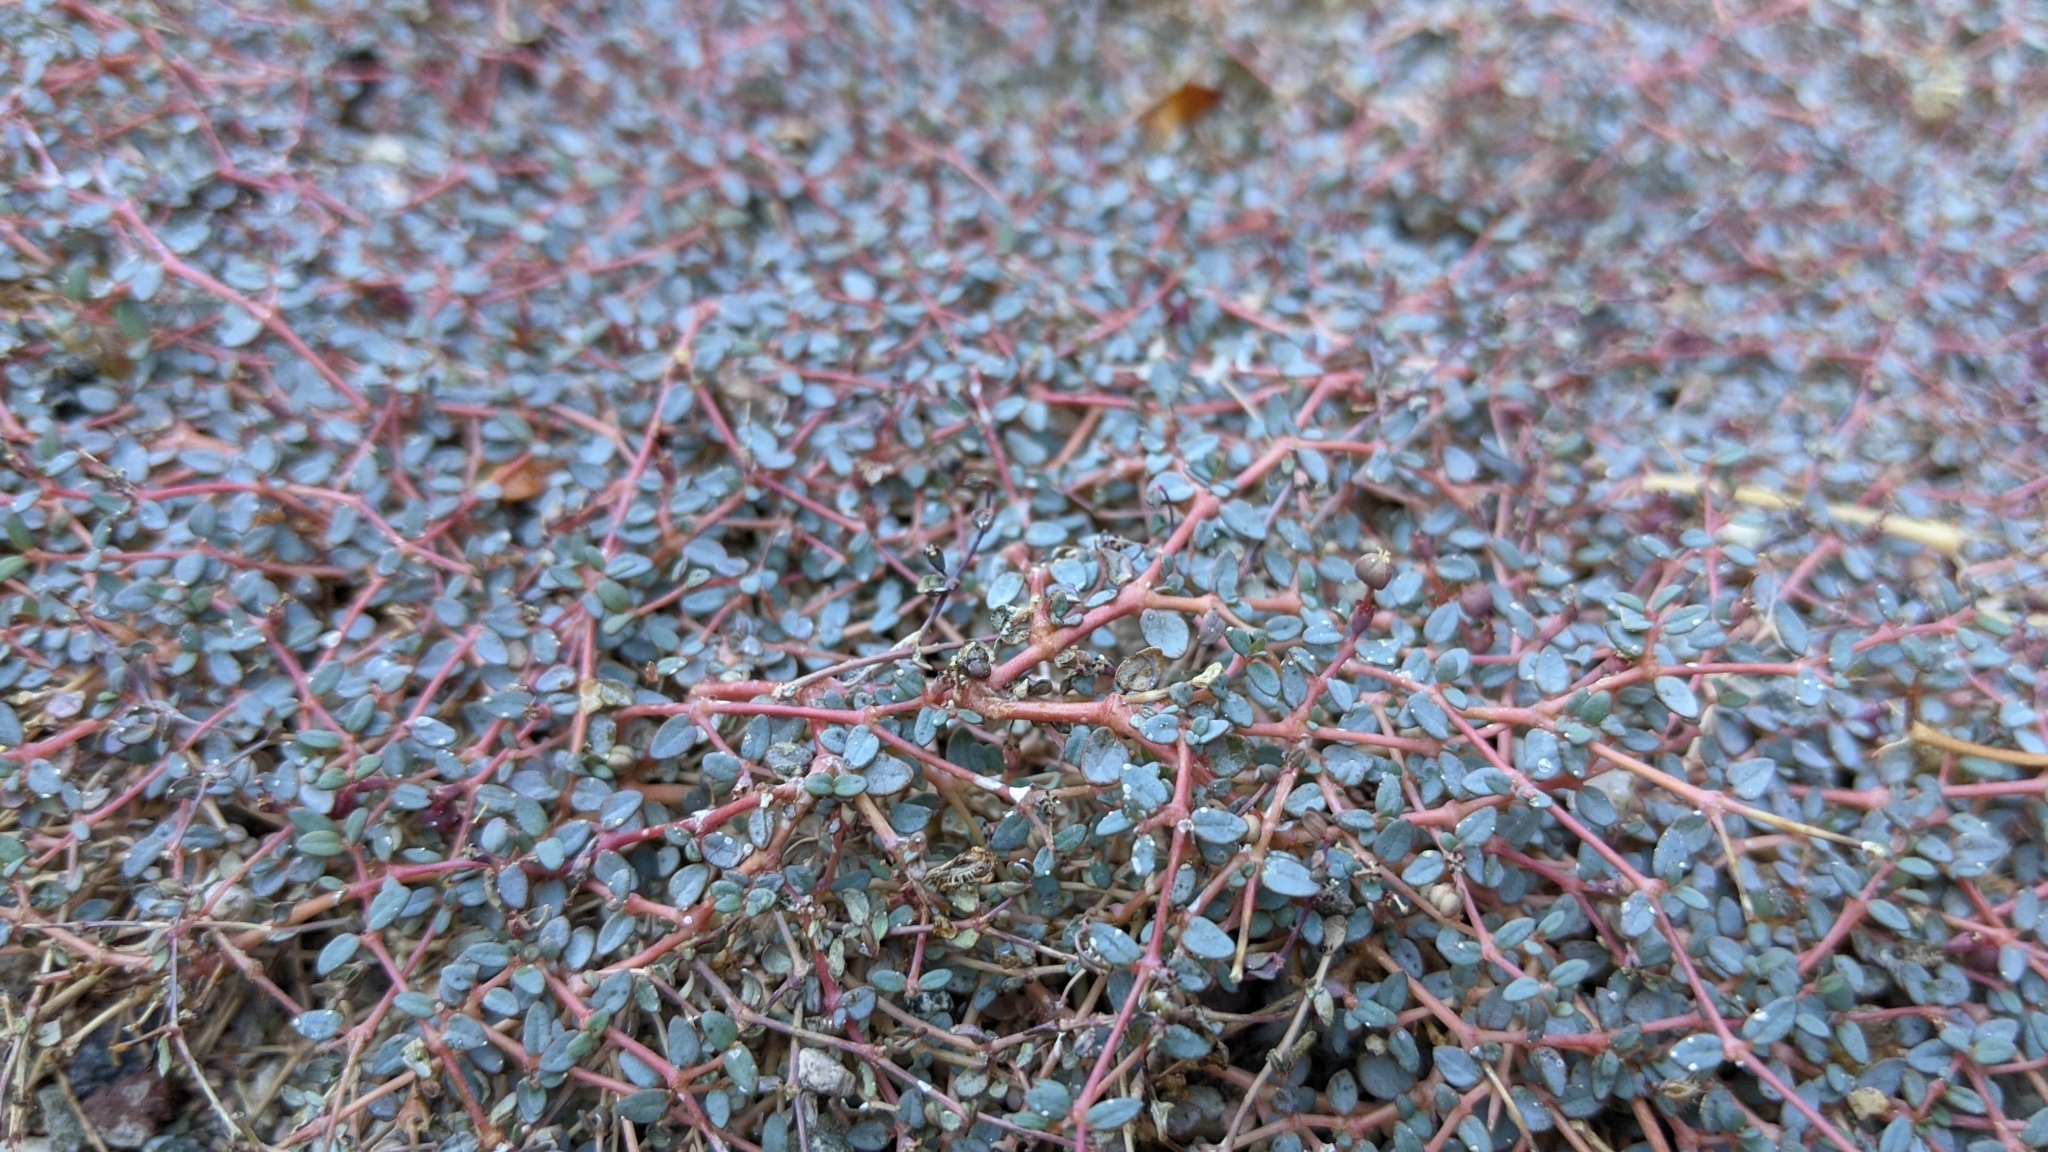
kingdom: Plantae
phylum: Tracheophyta
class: Magnoliopsida
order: Malpighiales
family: Euphorbiaceae
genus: Euphorbia
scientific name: Euphorbia parishii
